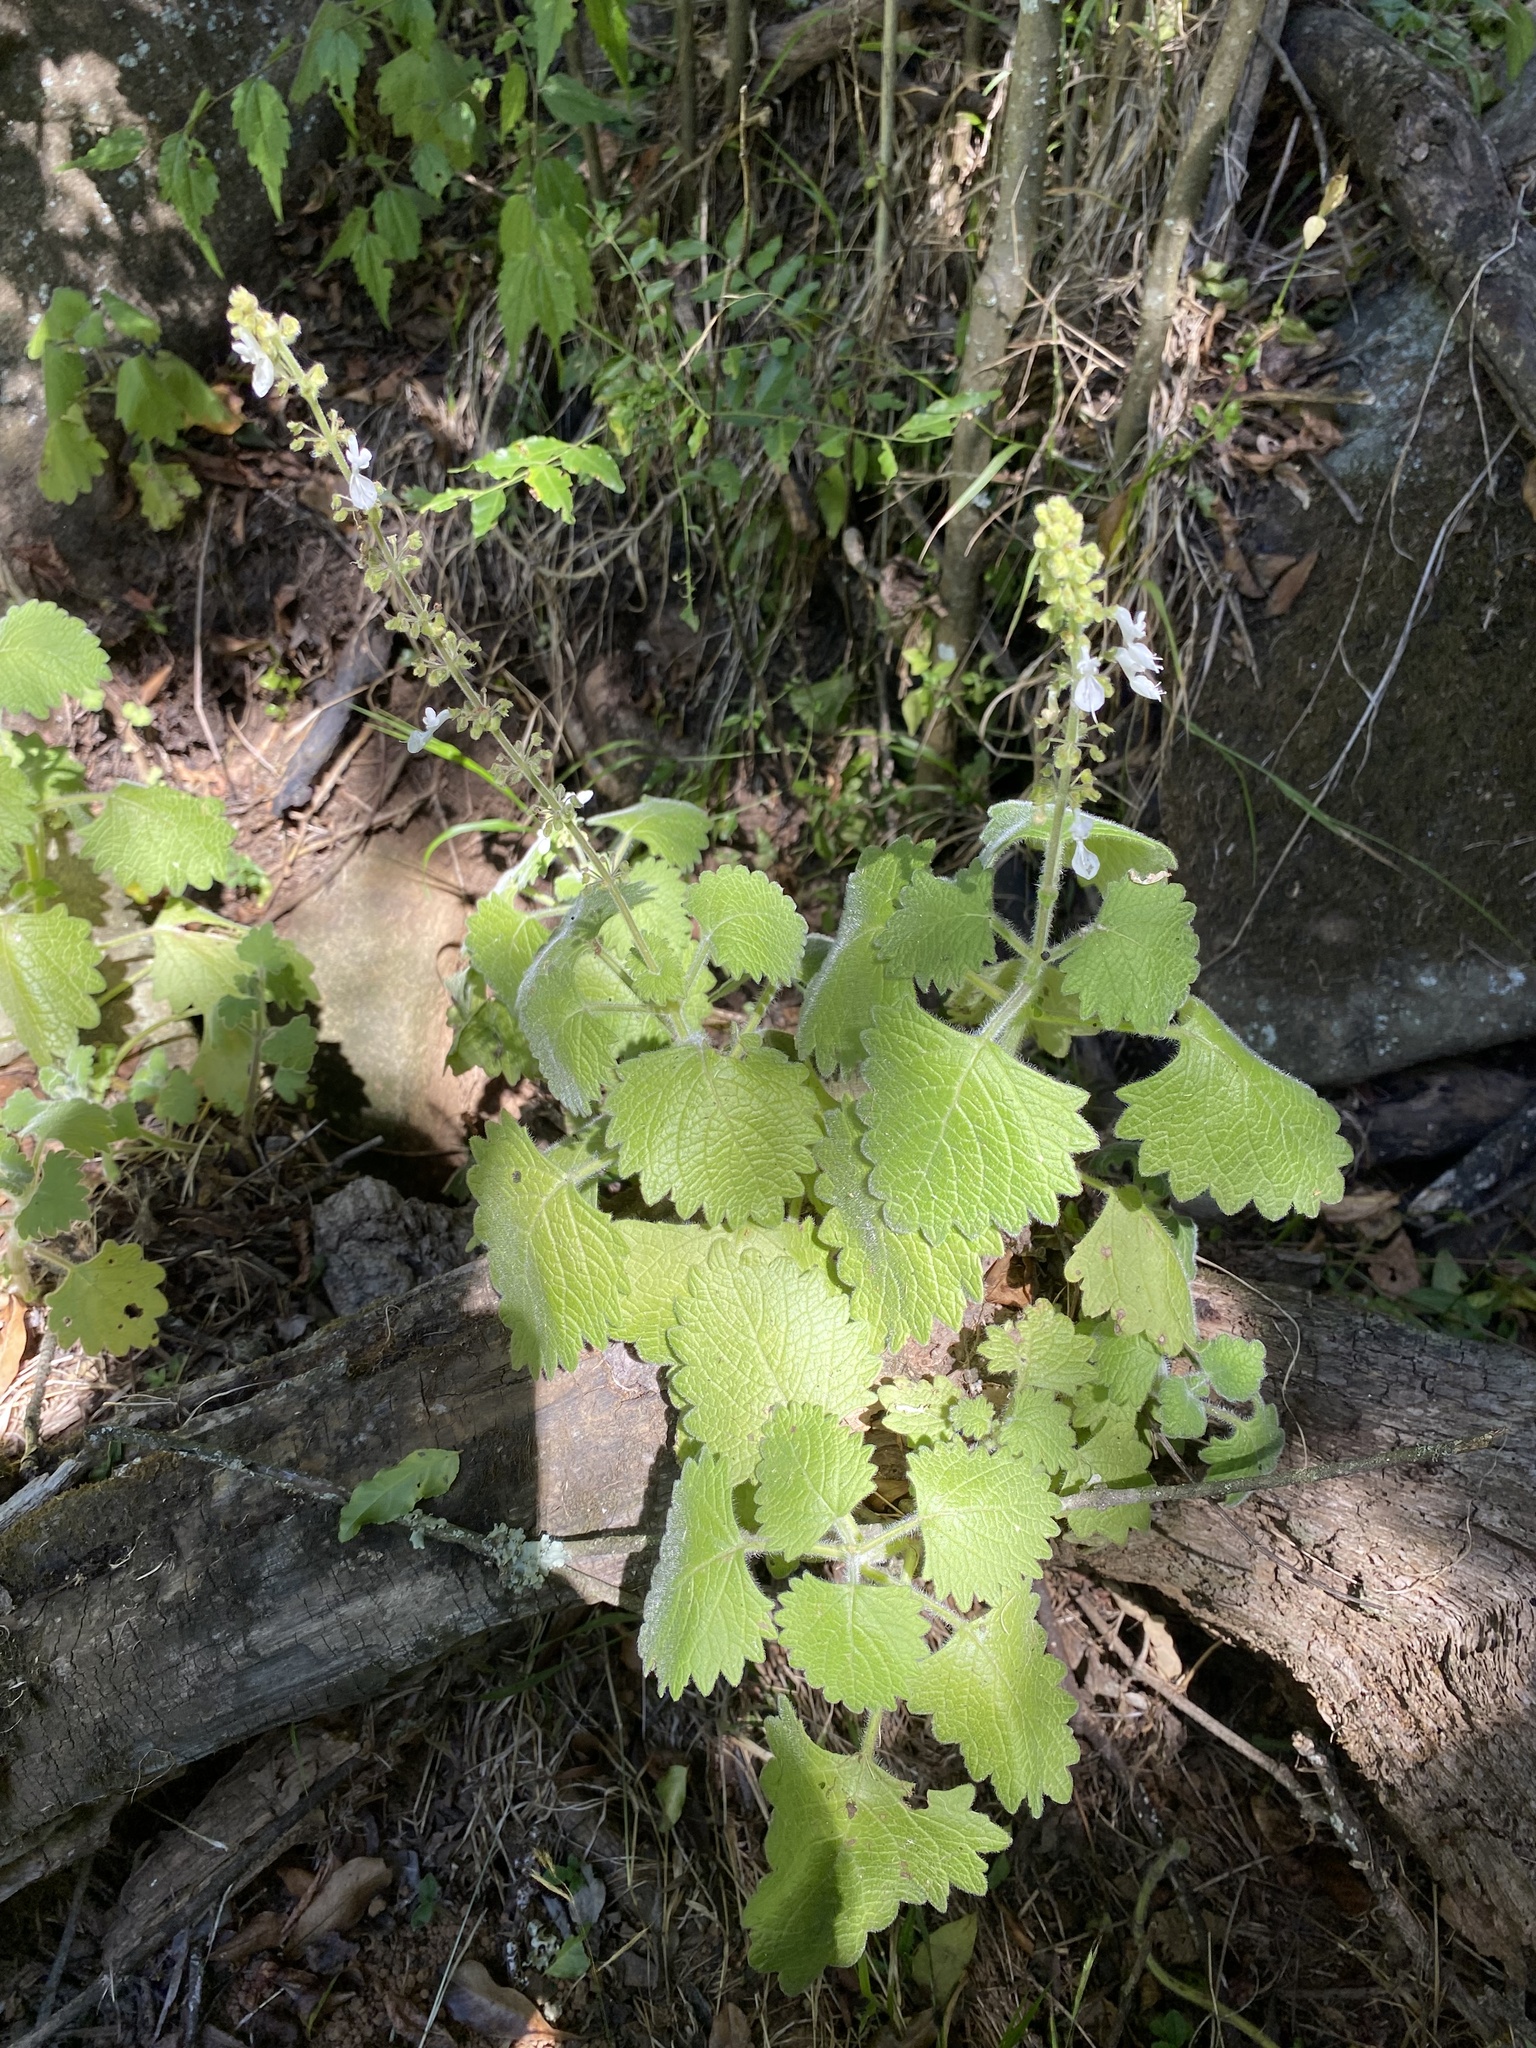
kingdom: Plantae
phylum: Tracheophyta
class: Magnoliopsida
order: Lamiales
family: Lamiaceae
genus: Coleus
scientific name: Coleus grandidentatus
